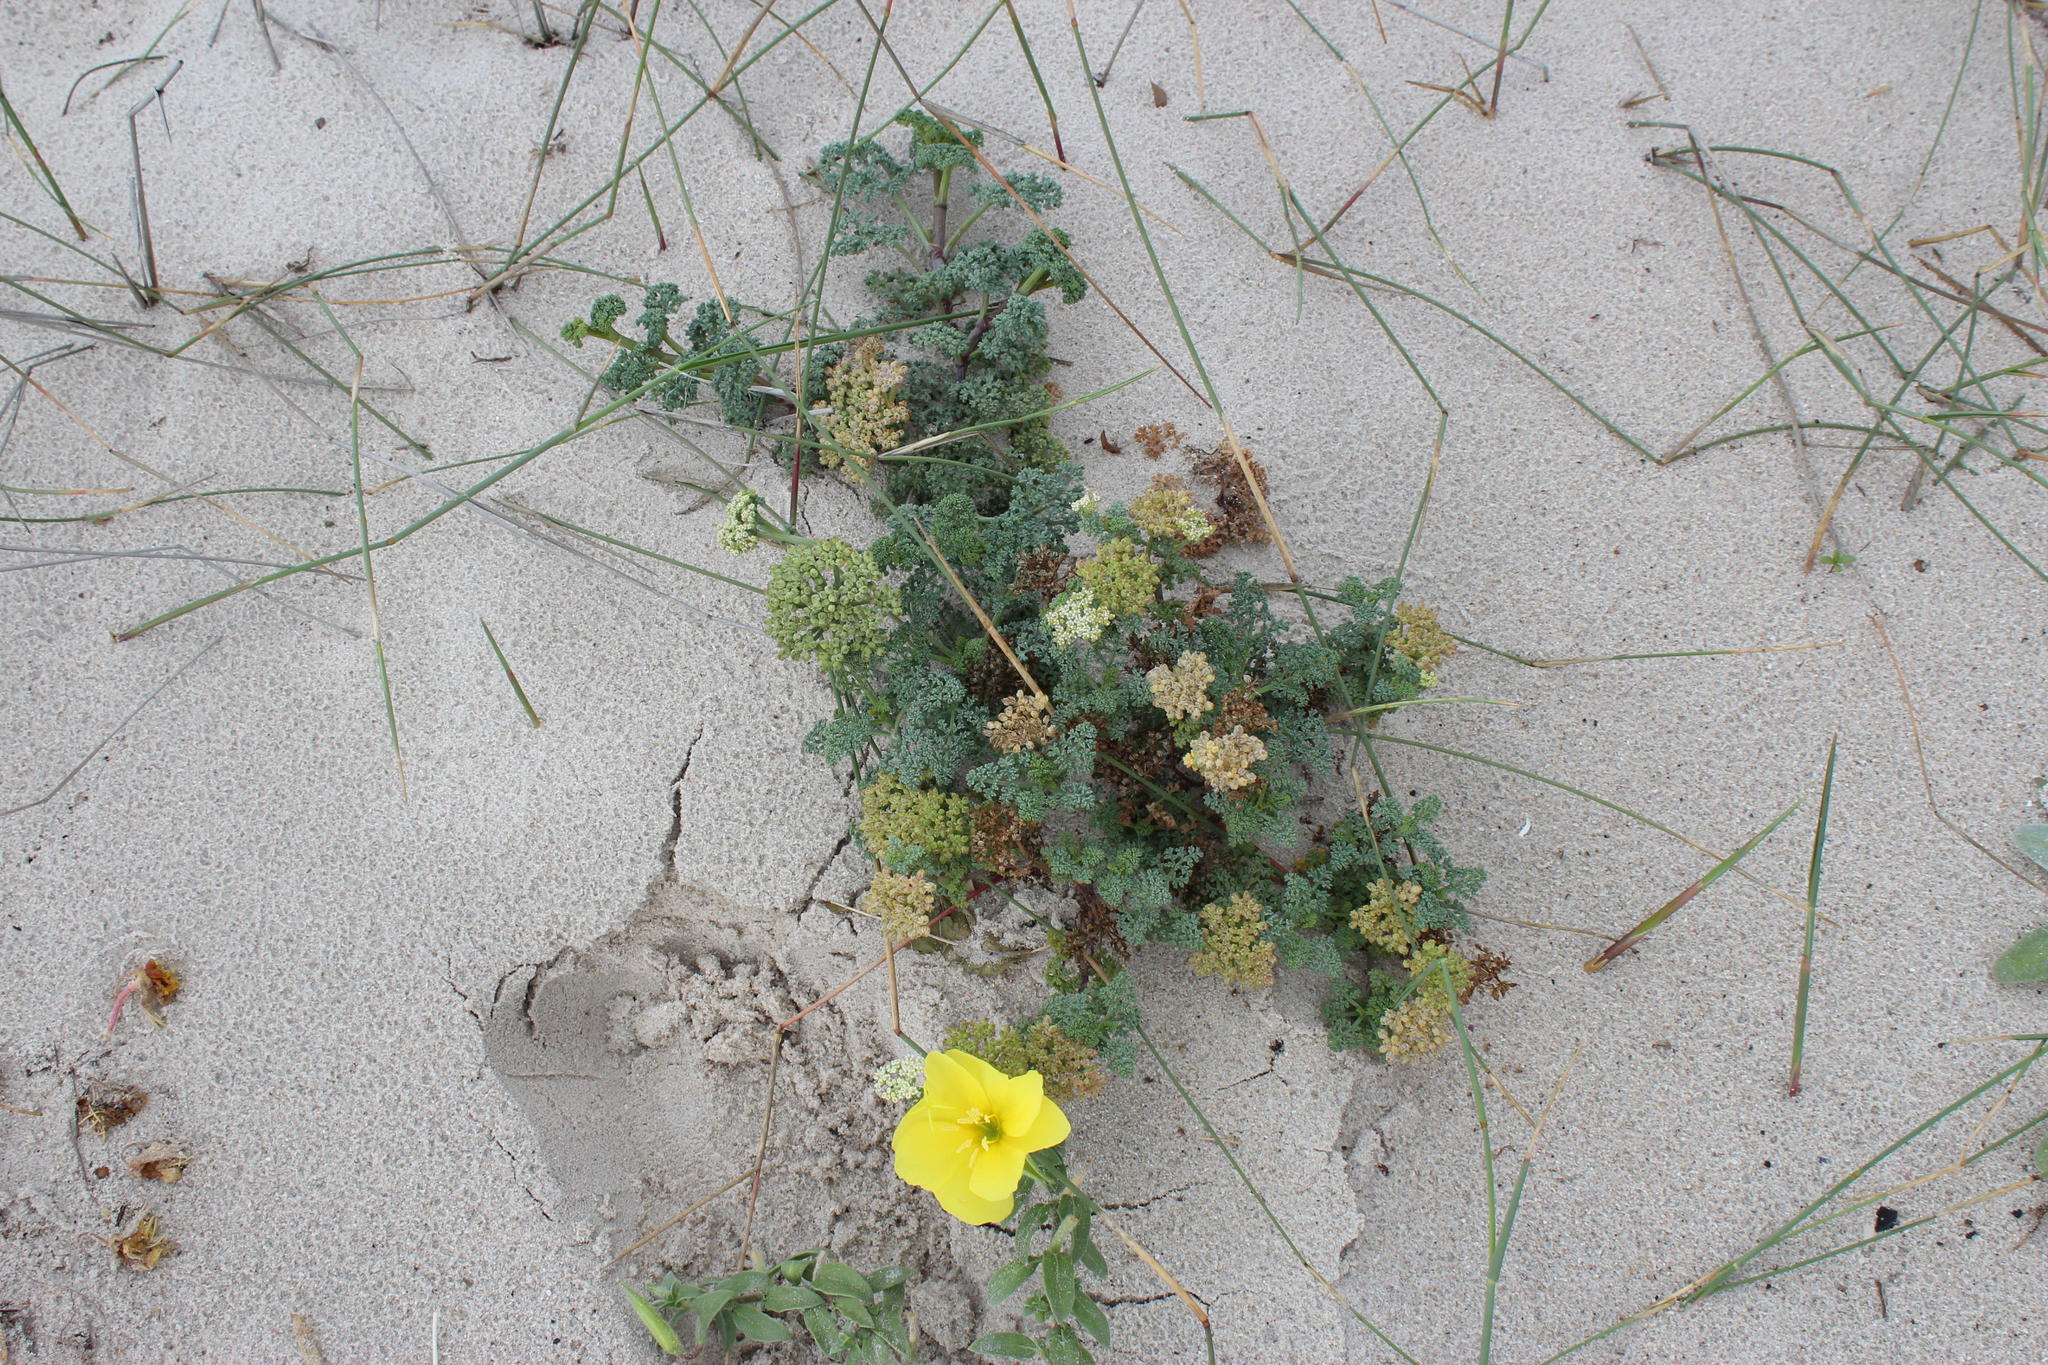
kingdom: Plantae
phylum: Tracheophyta
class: Magnoliopsida
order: Apiales
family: Apiaceae
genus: Dasispermum
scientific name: Dasispermum suffruticosum
